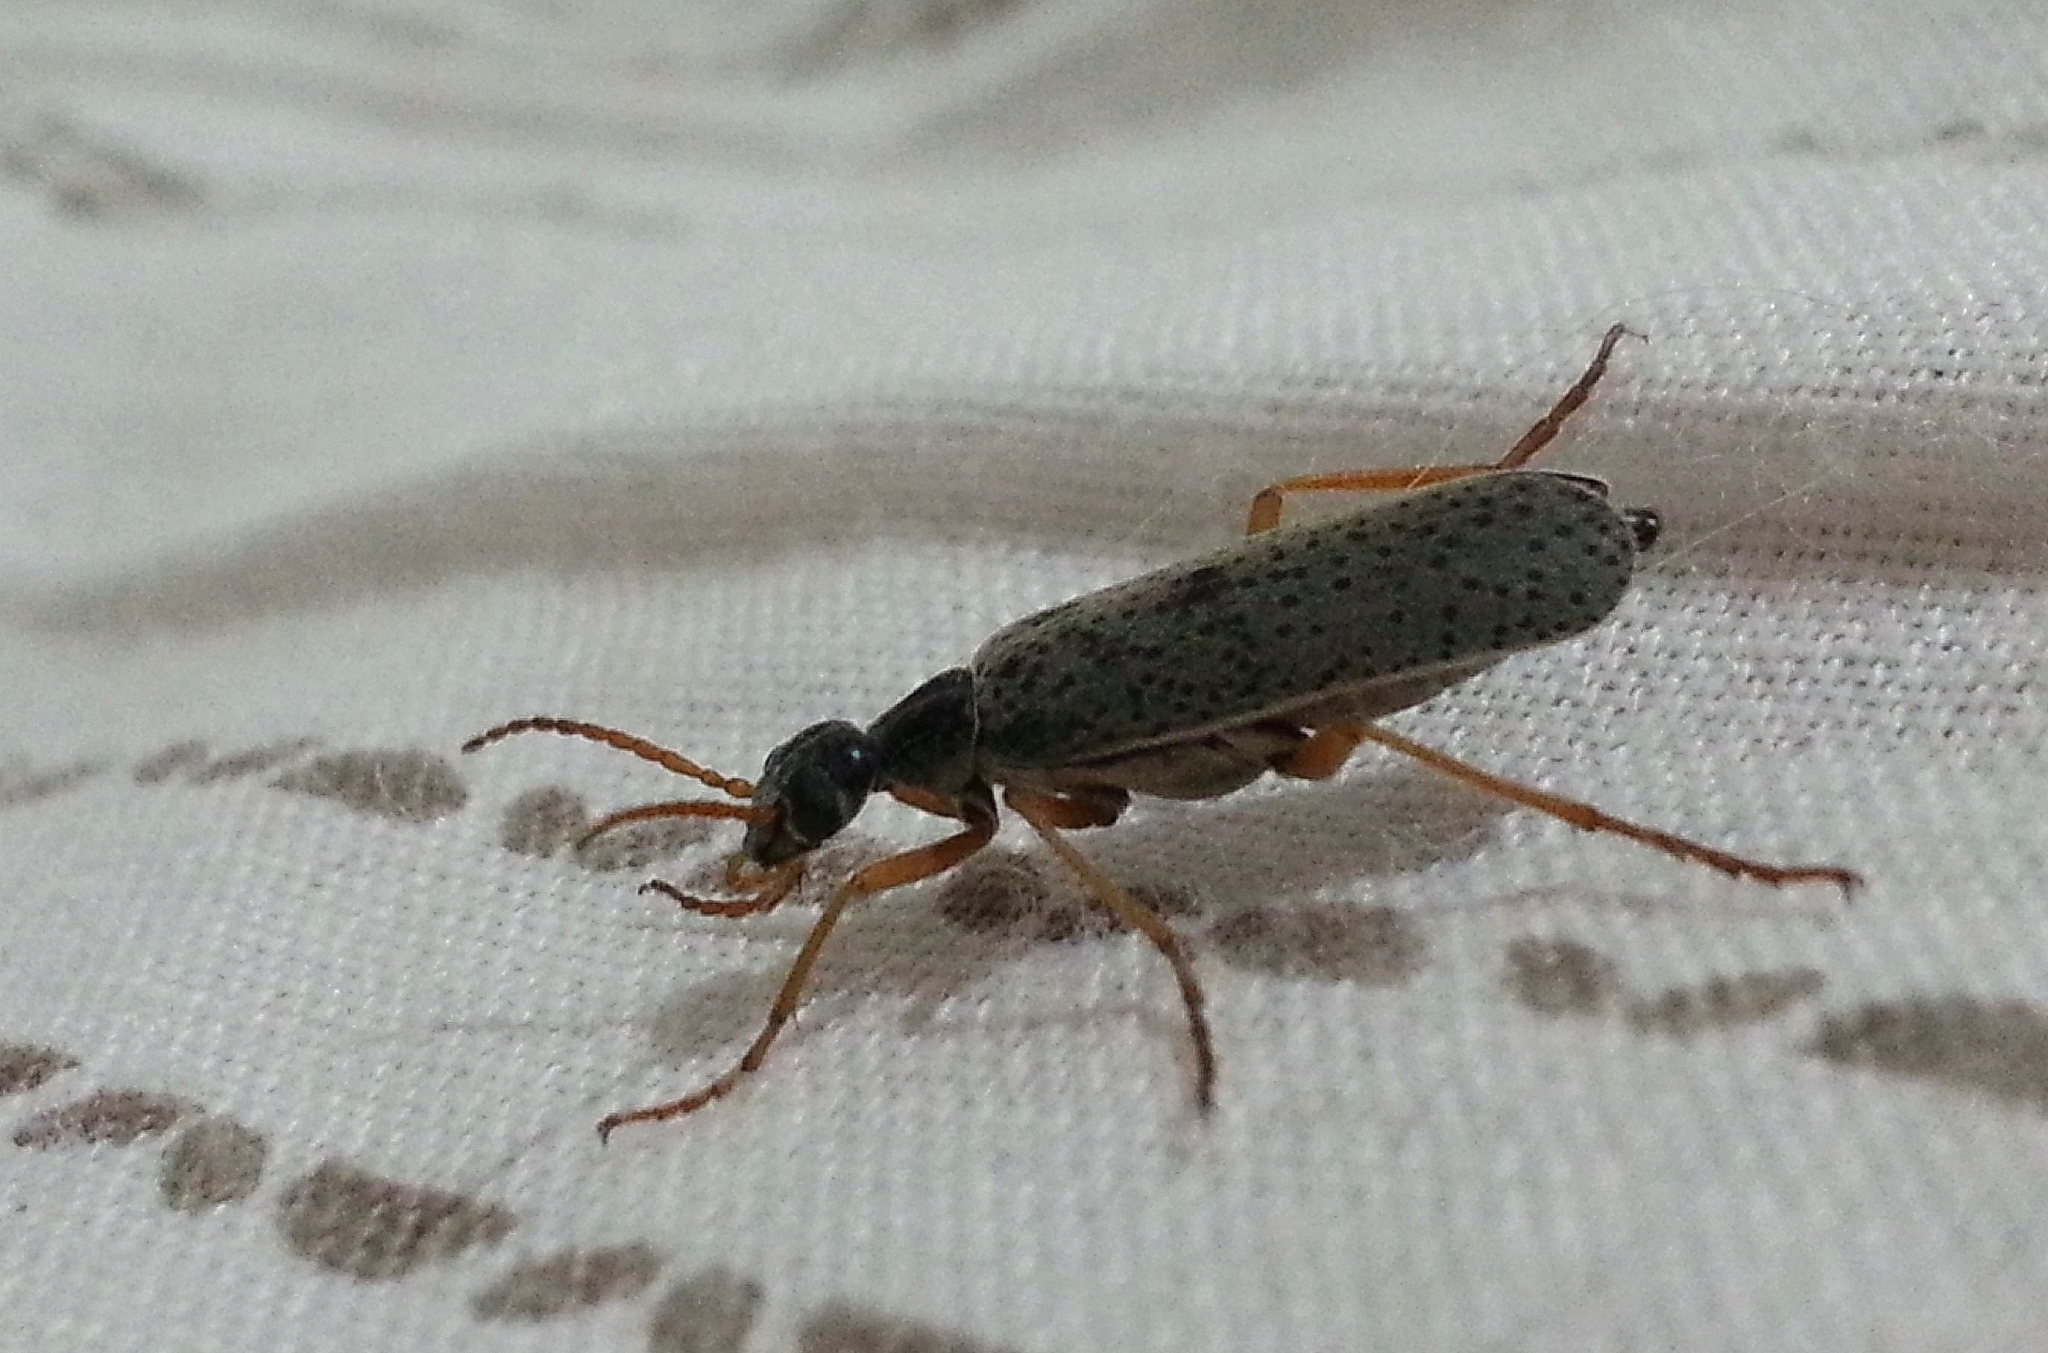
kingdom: Animalia
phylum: Arthropoda
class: Insecta
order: Coleoptera
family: Meloidae
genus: Epicauta
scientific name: Epicauta
